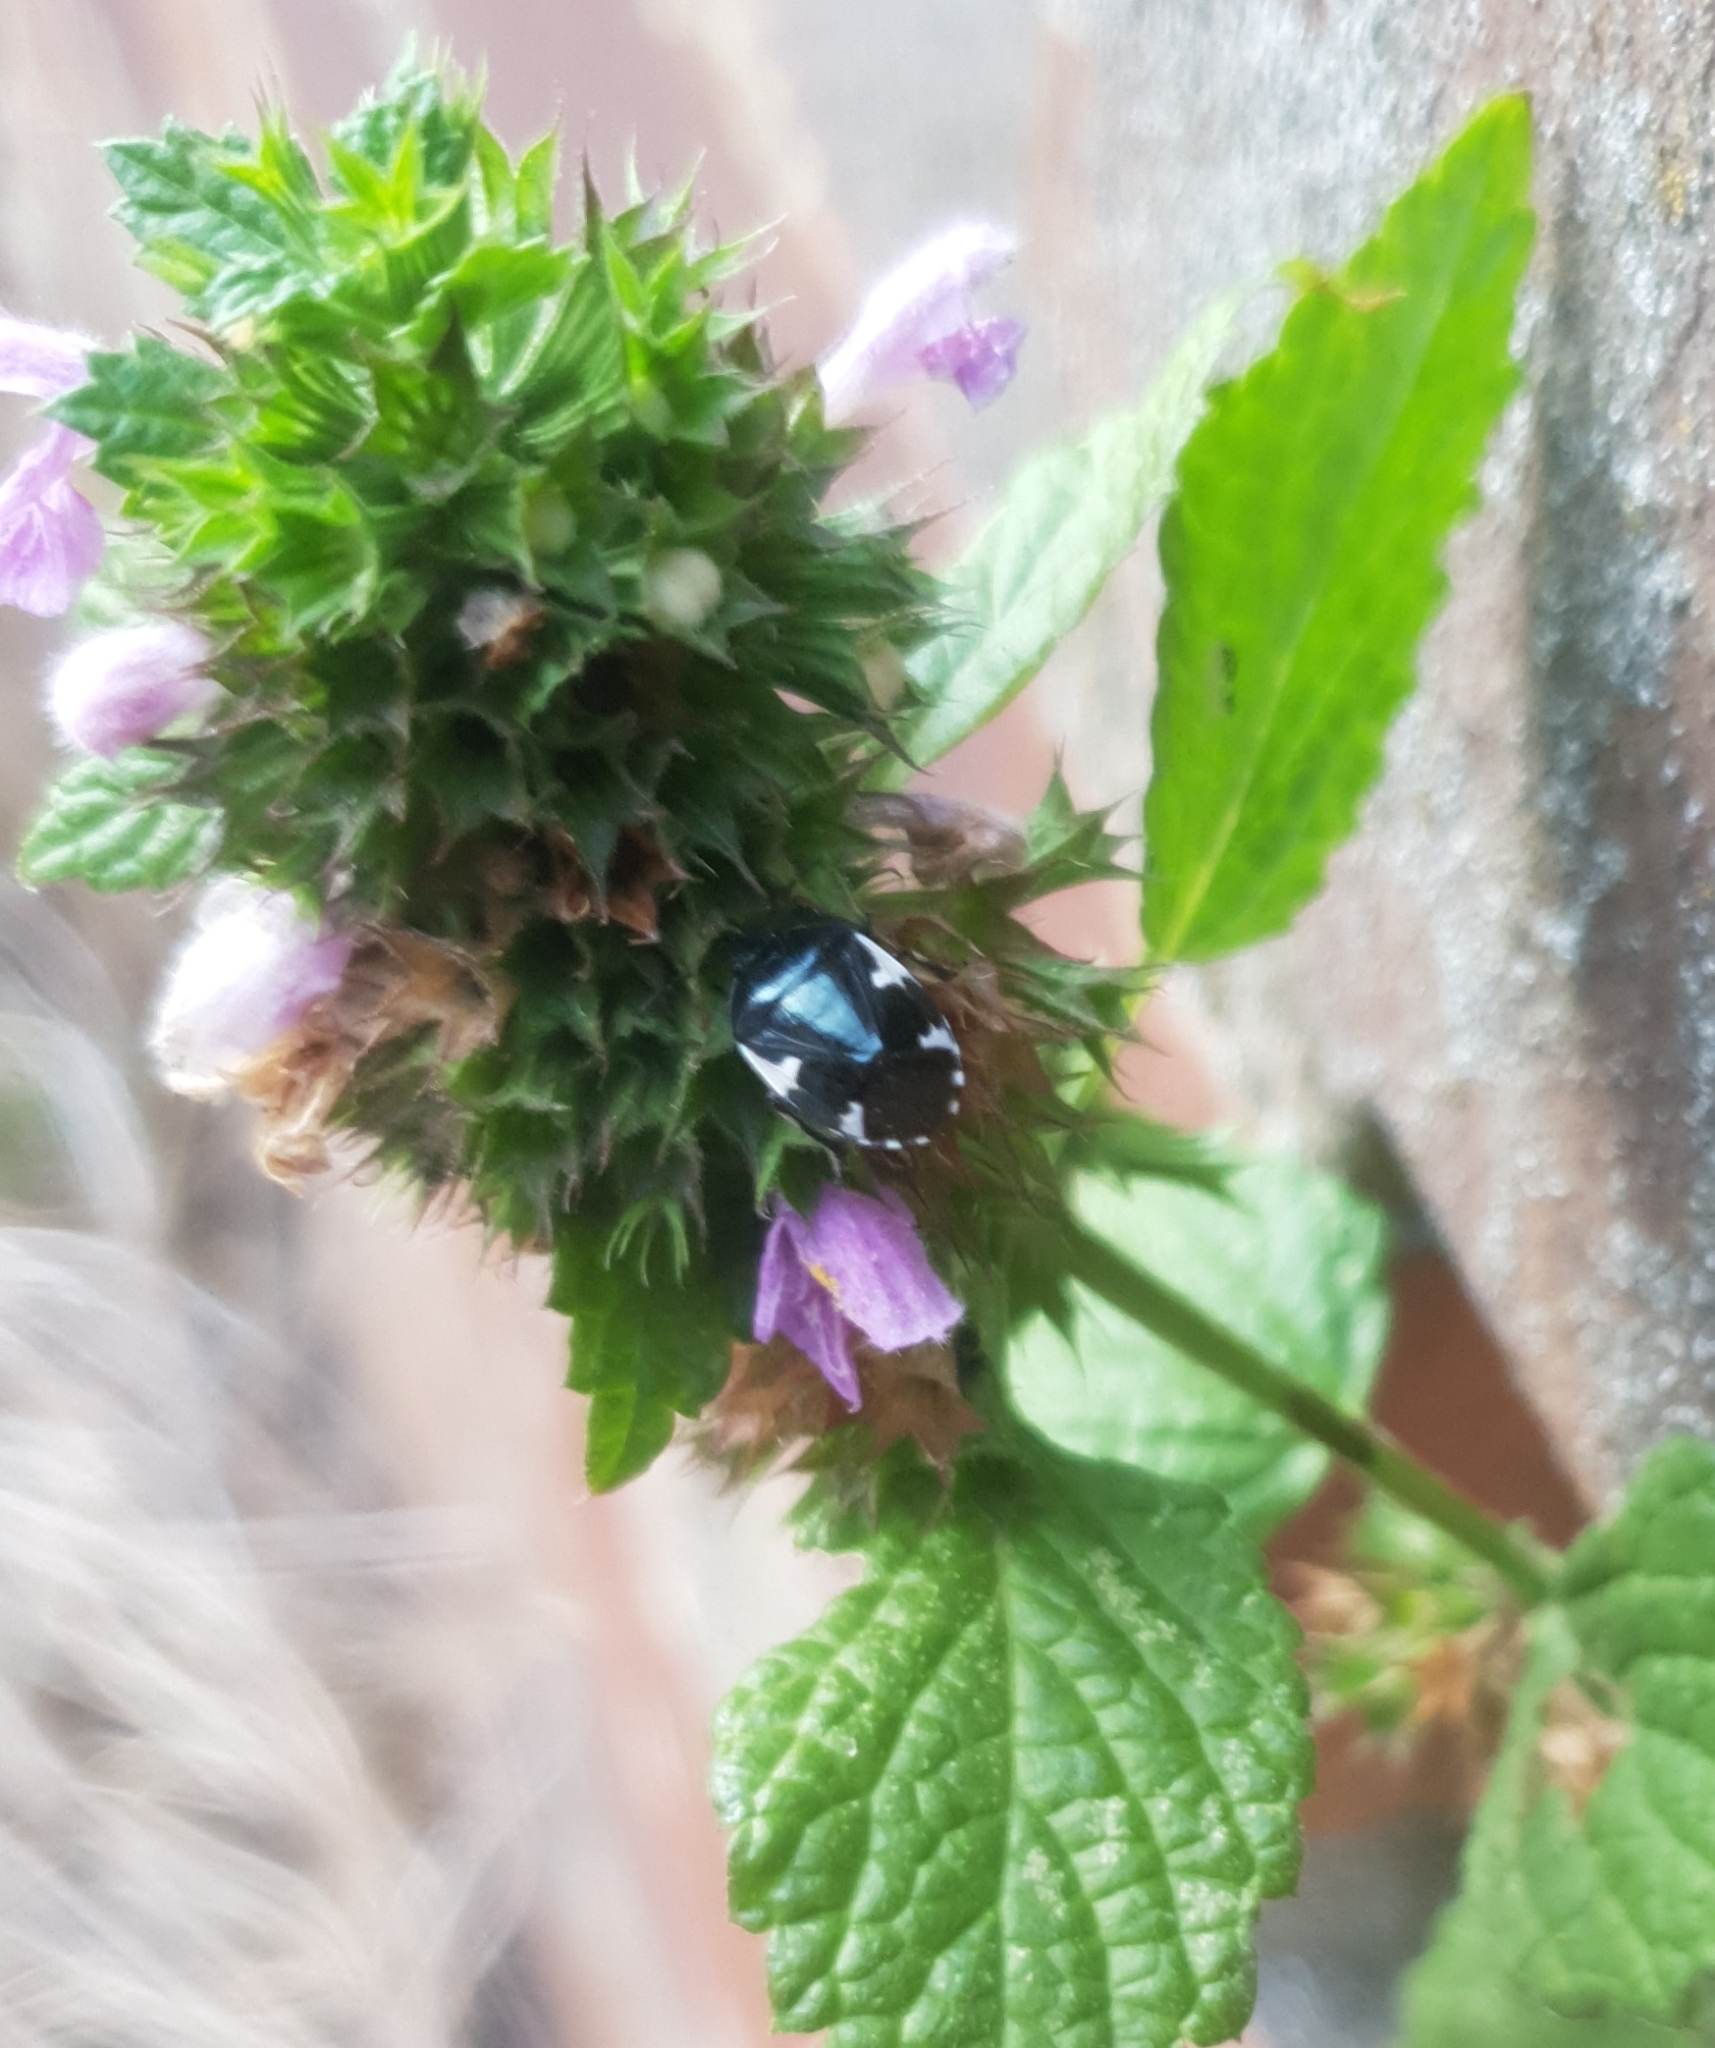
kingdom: Animalia
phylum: Arthropoda
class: Insecta
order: Hemiptera
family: Cydnidae
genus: Tritomegas
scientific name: Tritomegas sexmaculatus
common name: Rambur's pied shieldbug
